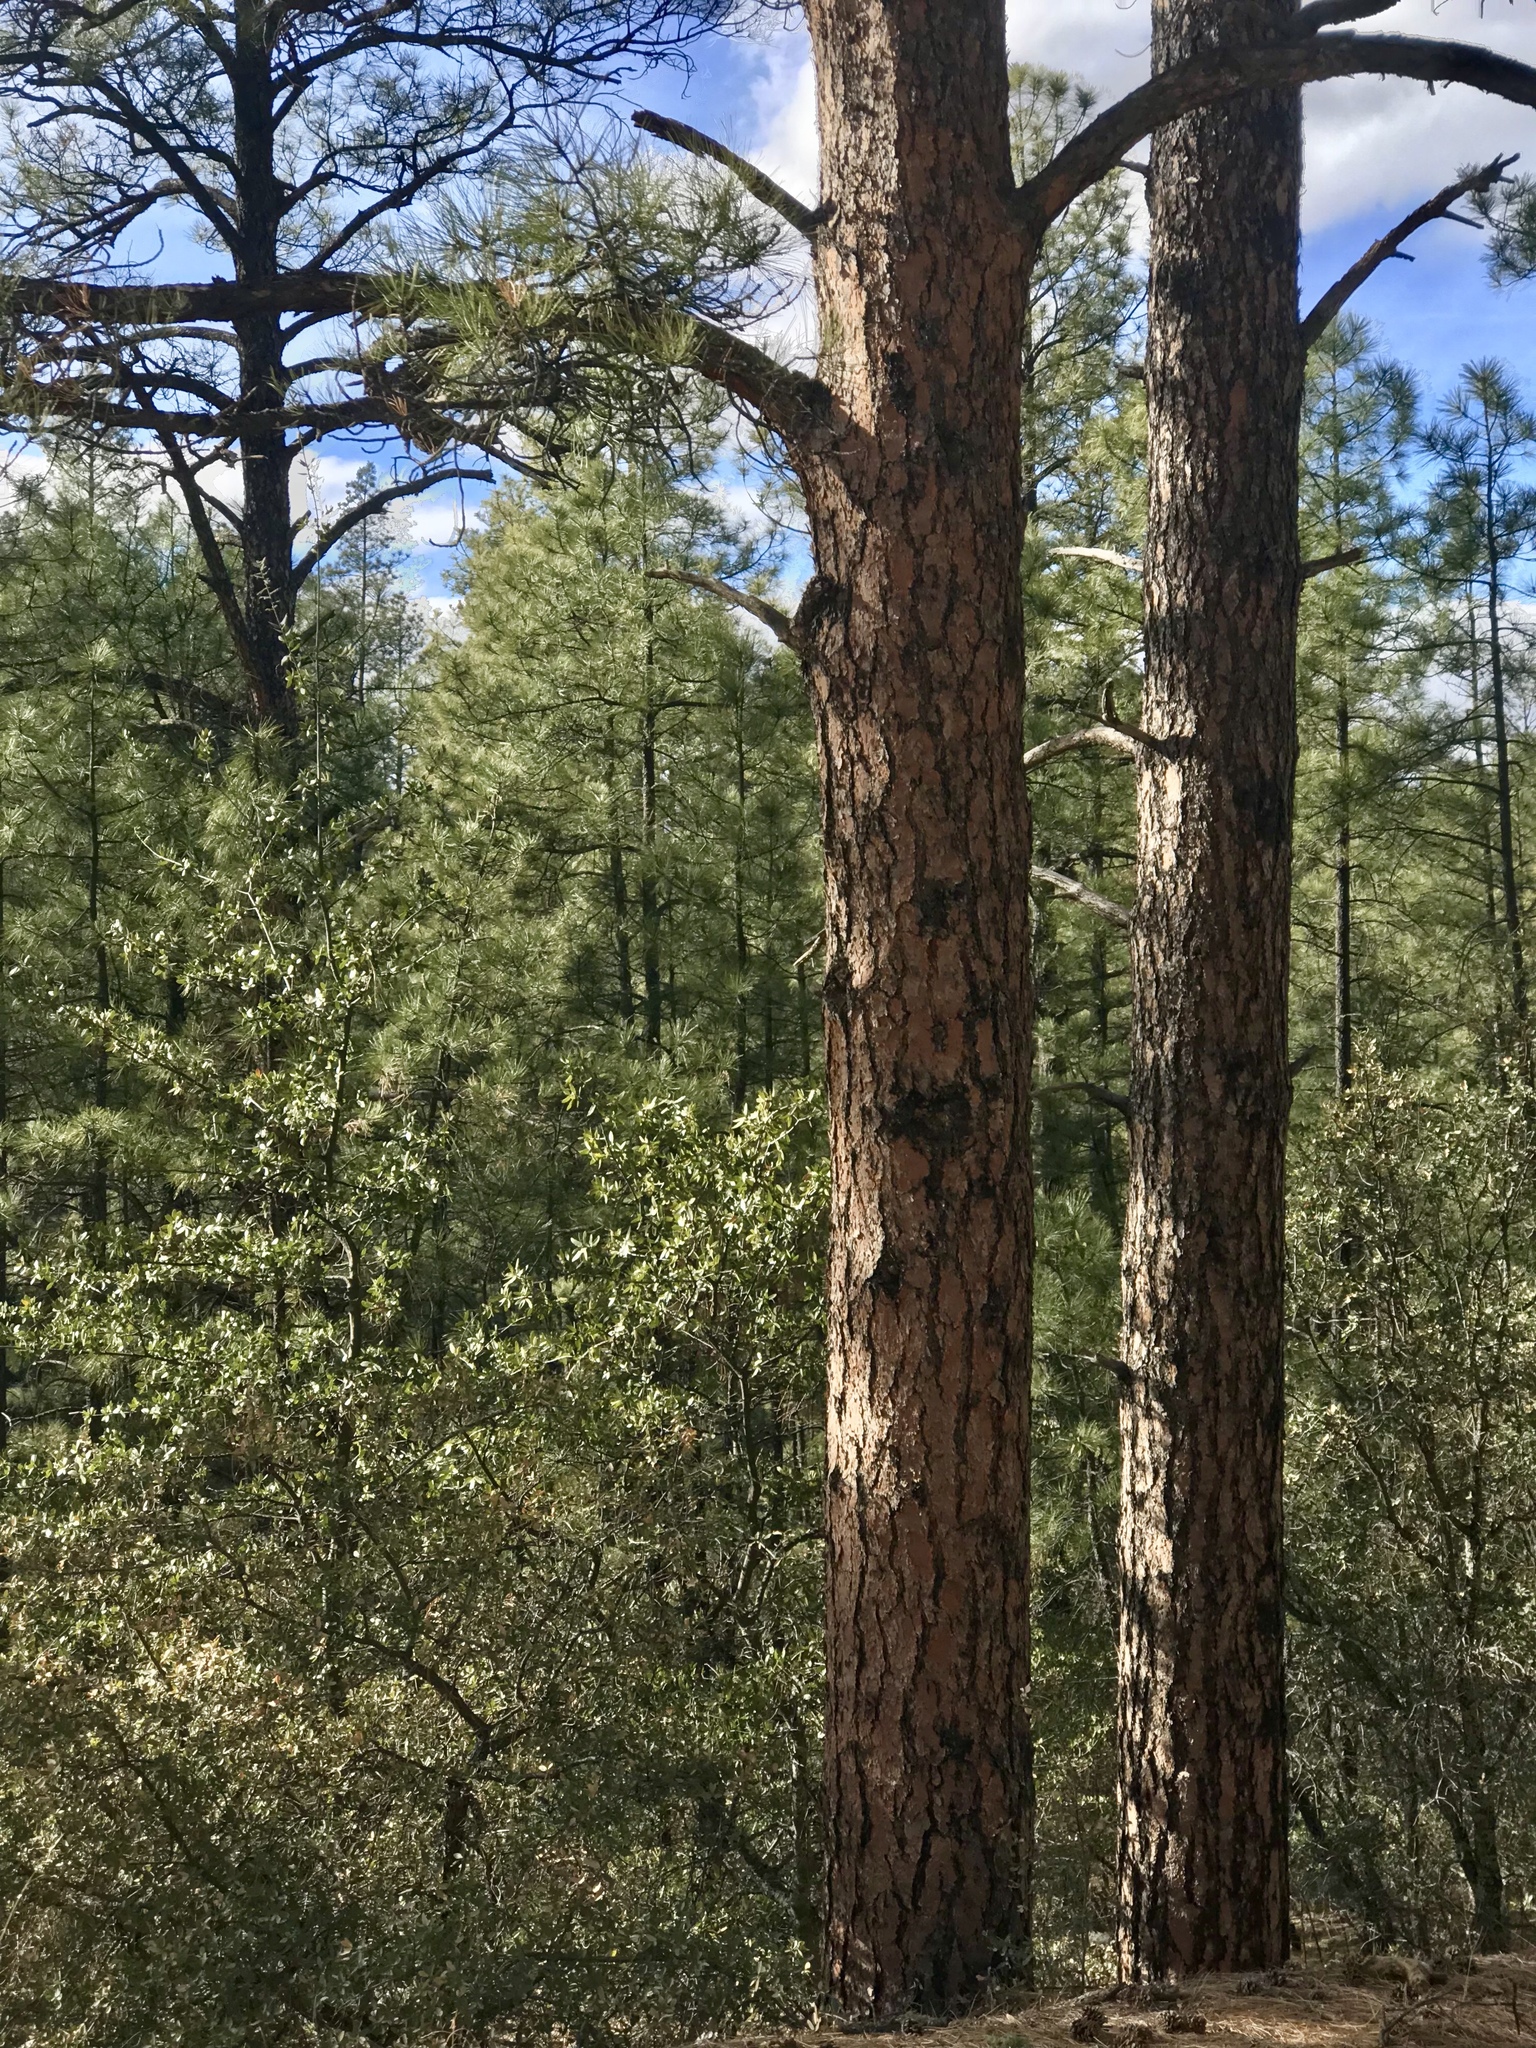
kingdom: Plantae
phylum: Tracheophyta
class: Pinopsida
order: Pinales
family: Pinaceae
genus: Pinus
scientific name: Pinus ponderosa
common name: Western yellow-pine
